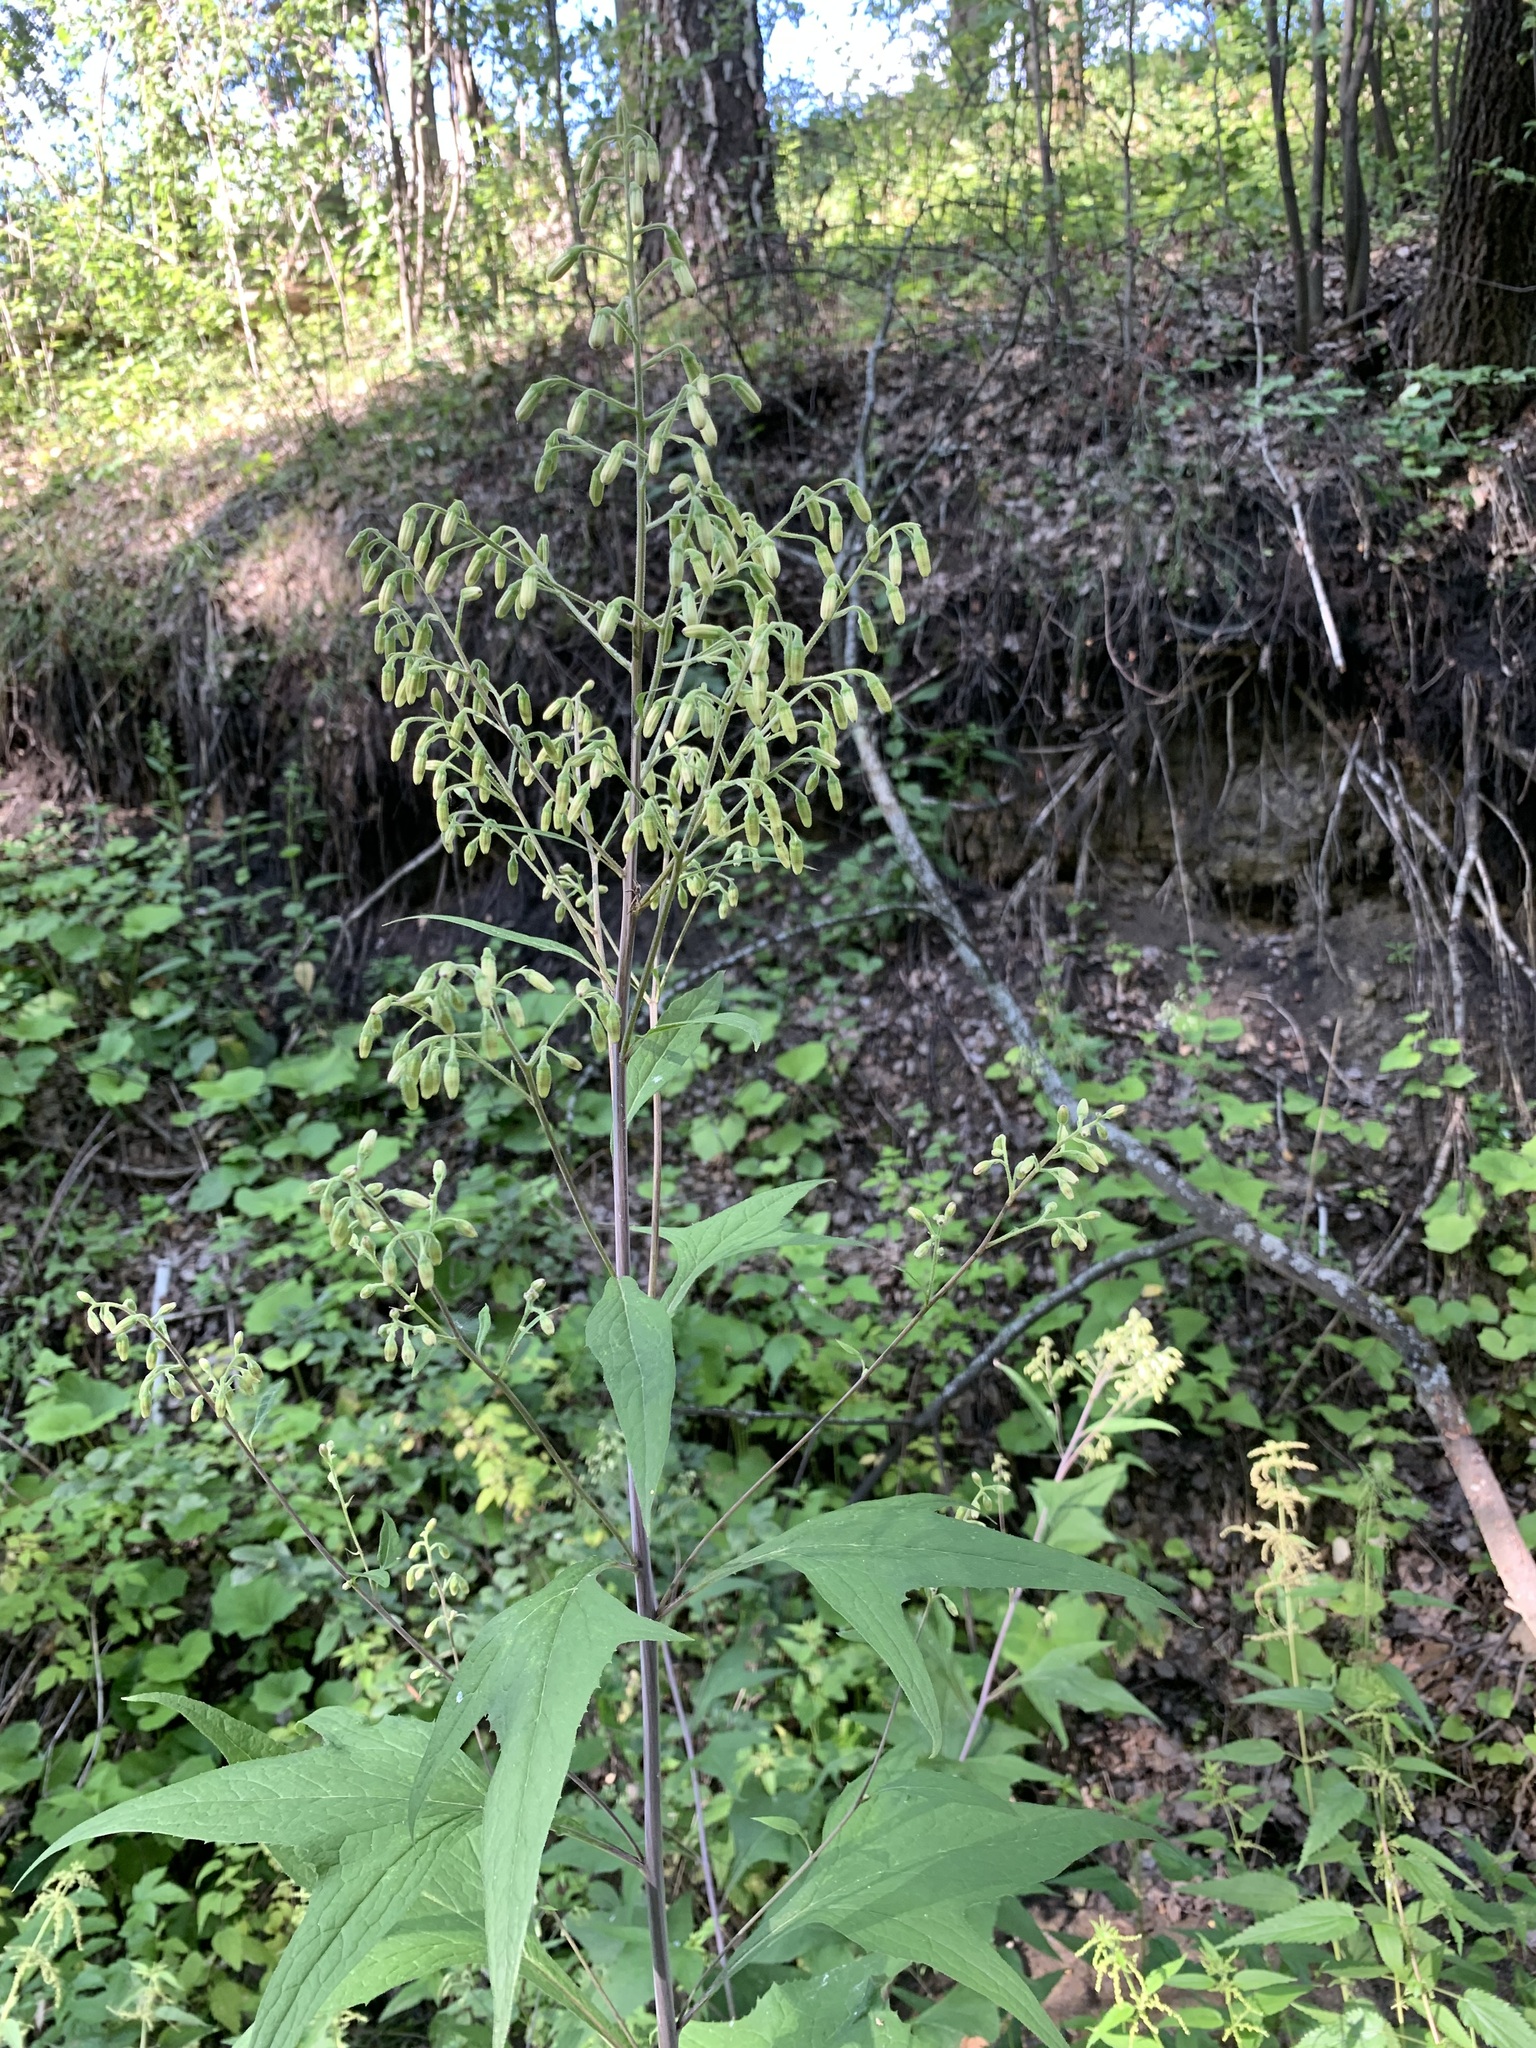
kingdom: Plantae
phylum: Tracheophyta
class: Magnoliopsida
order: Asterales
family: Asteraceae
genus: Parasenecio
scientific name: Parasenecio hastatus
